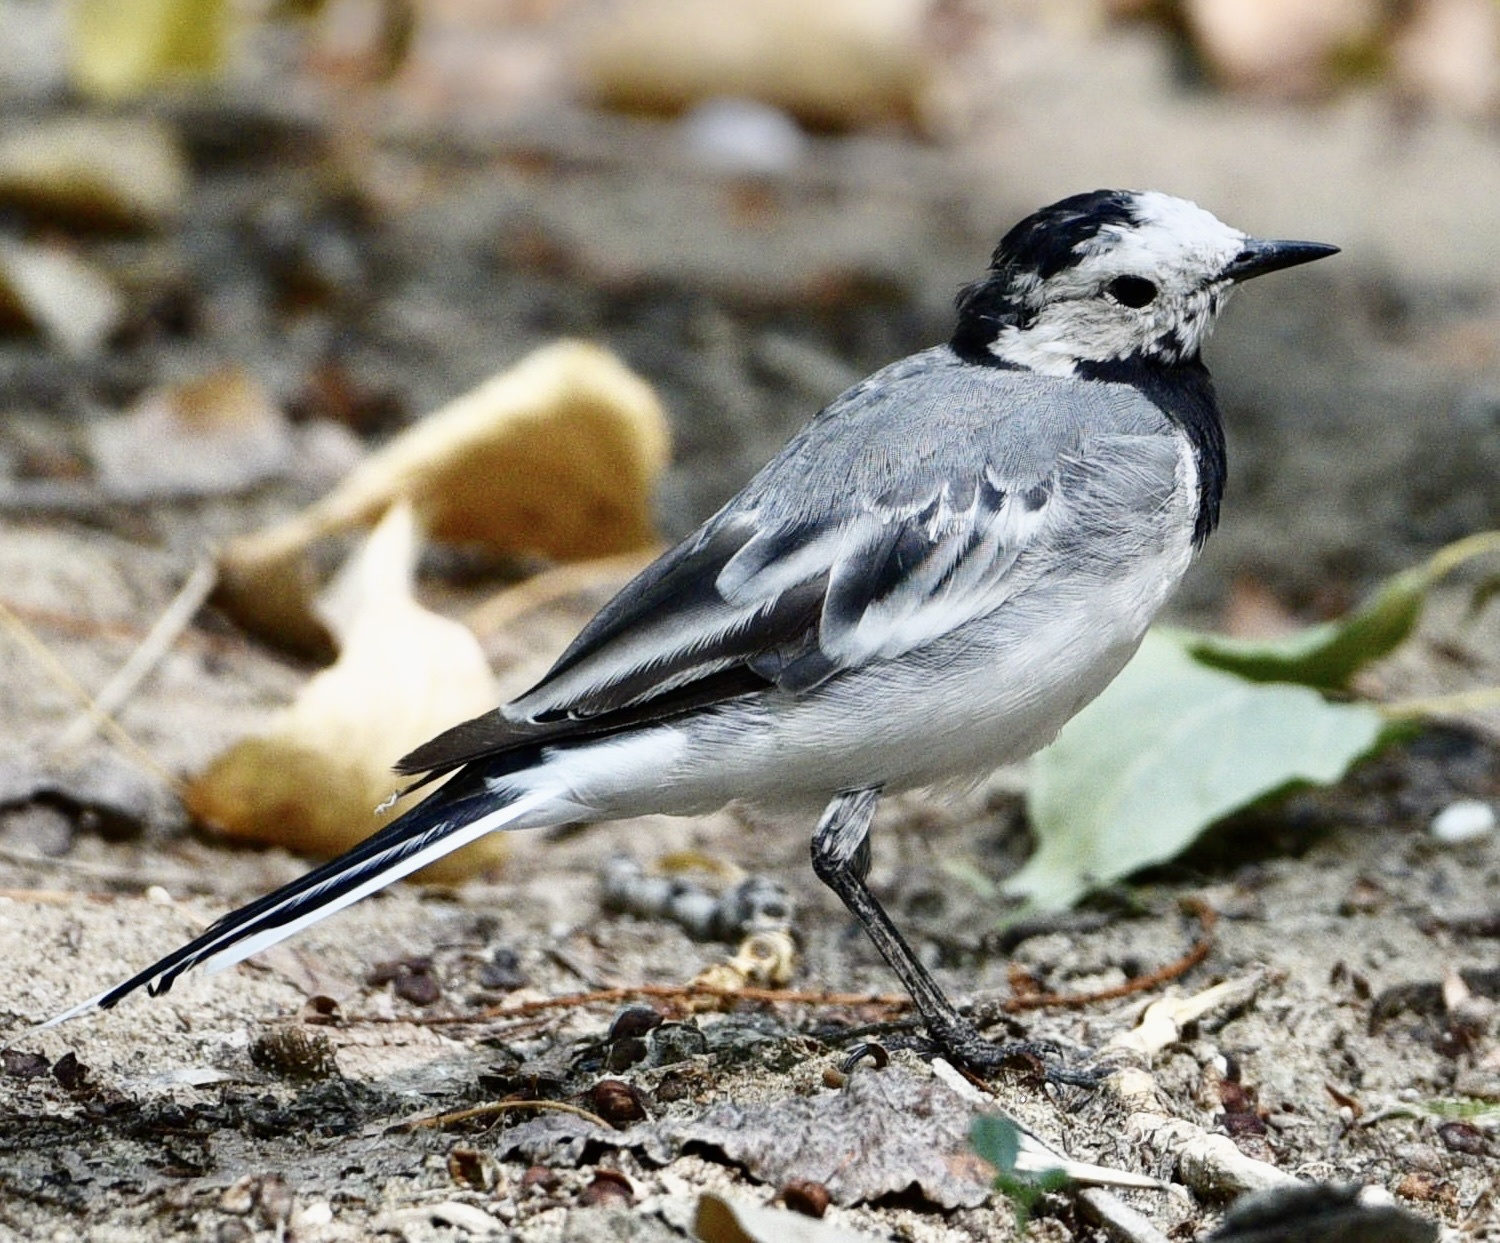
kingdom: Animalia
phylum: Chordata
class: Aves
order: Passeriformes
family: Motacillidae
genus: Motacilla
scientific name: Motacilla alba
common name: White wagtail
